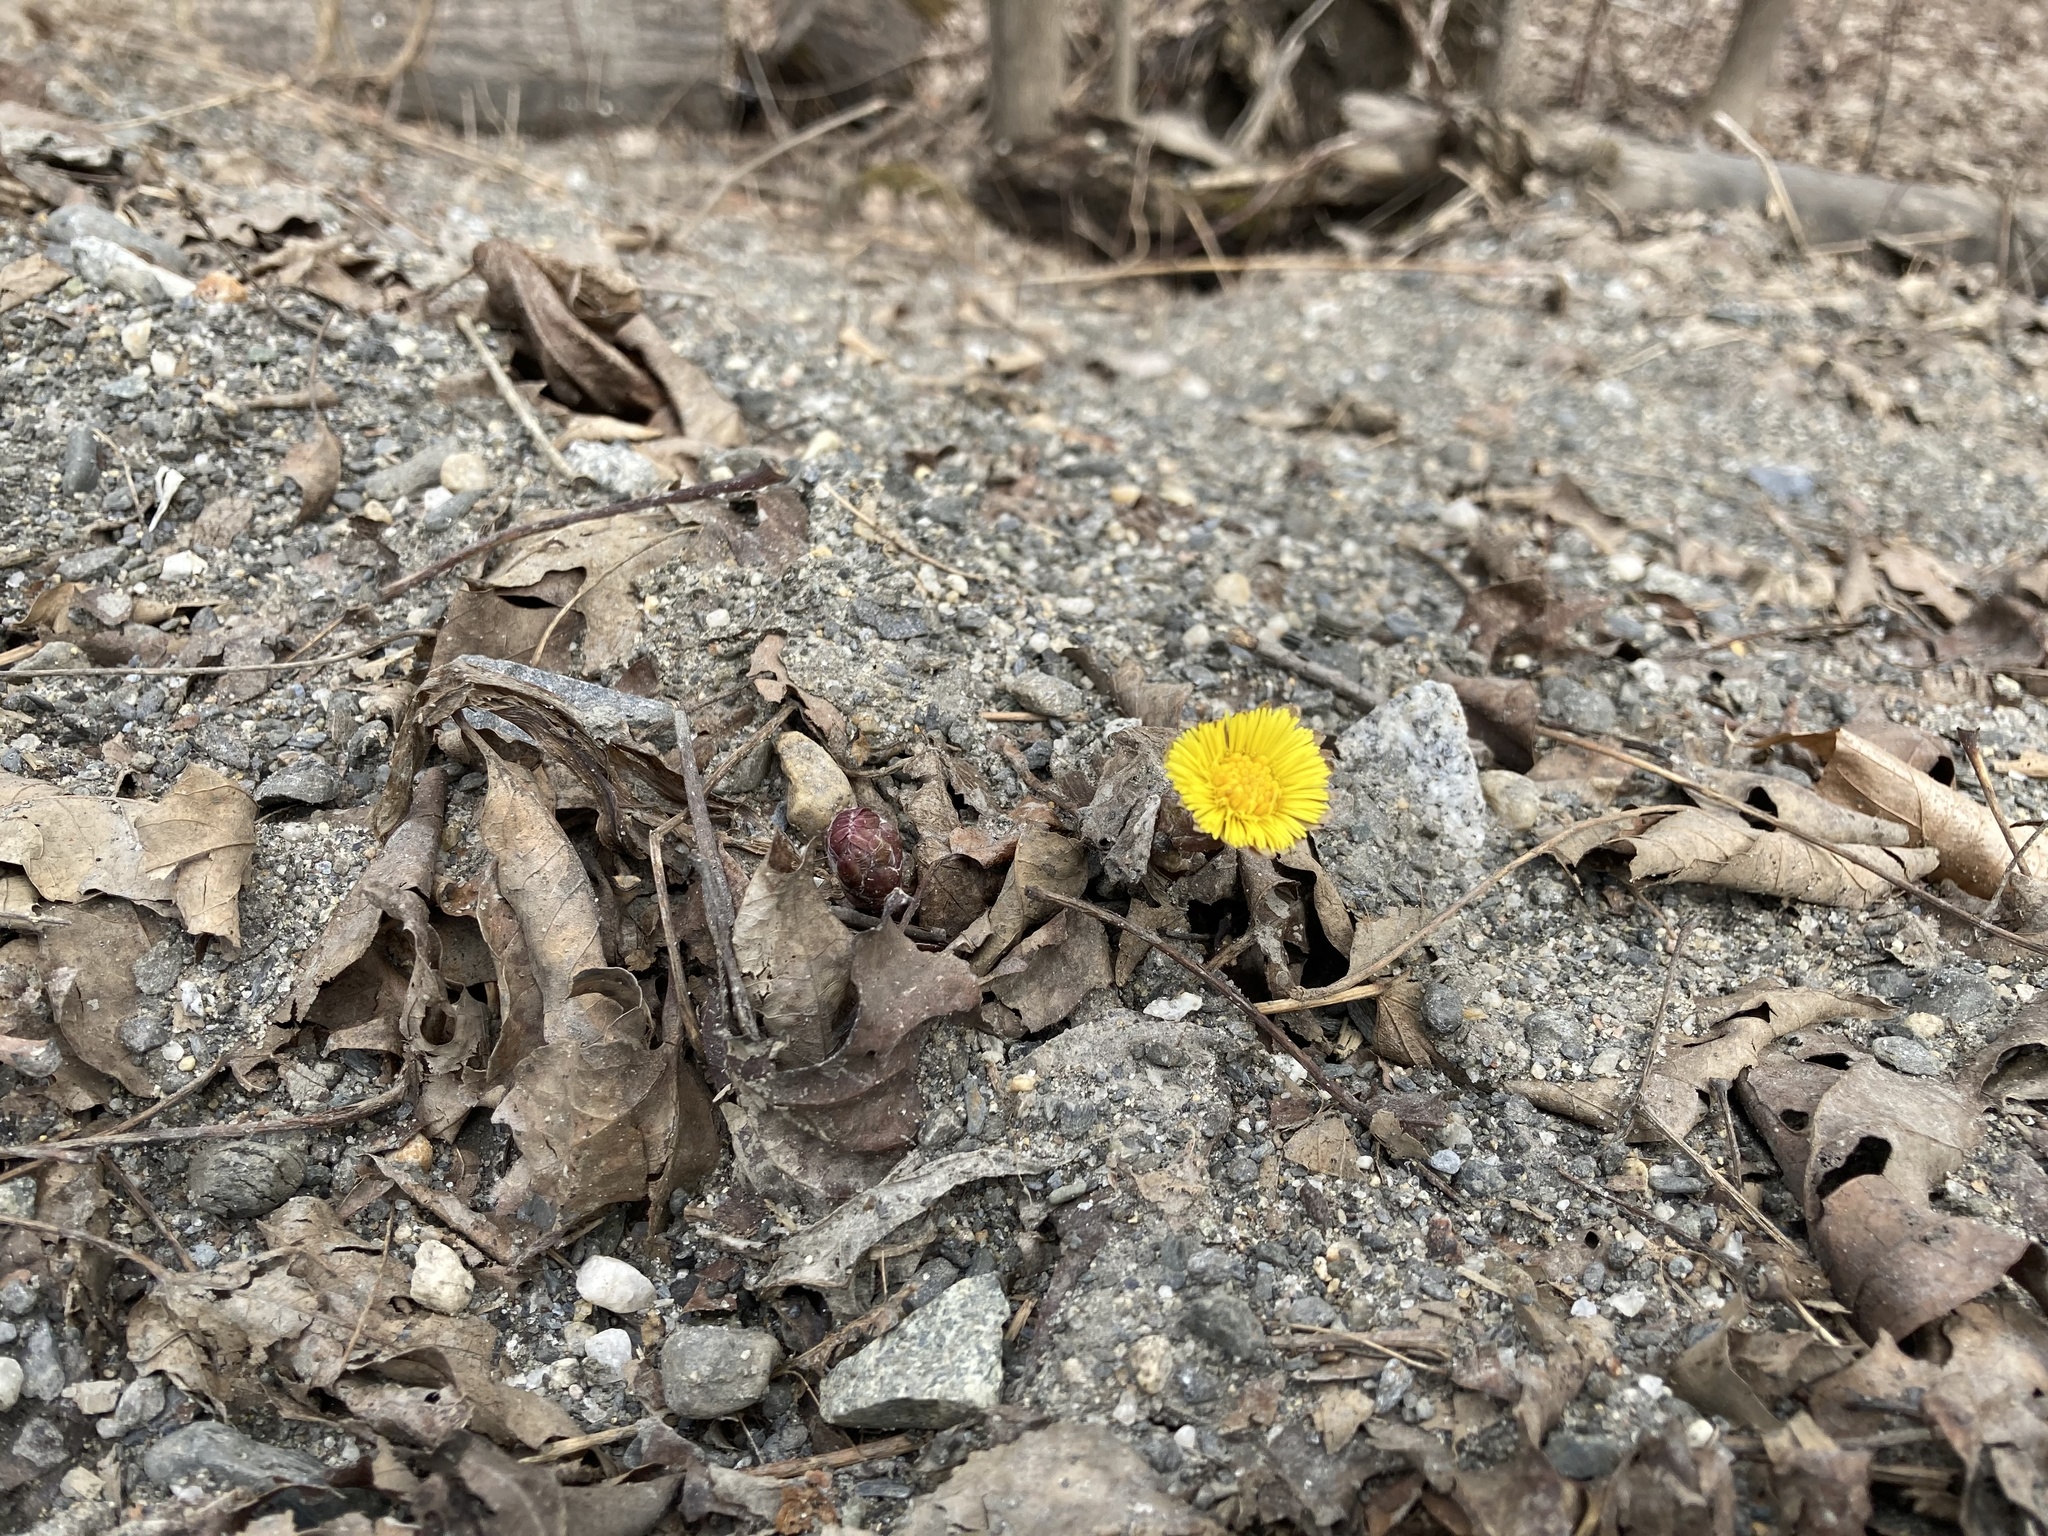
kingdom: Plantae
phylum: Tracheophyta
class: Magnoliopsida
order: Asterales
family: Asteraceae
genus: Tussilago
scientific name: Tussilago farfara
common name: Coltsfoot
